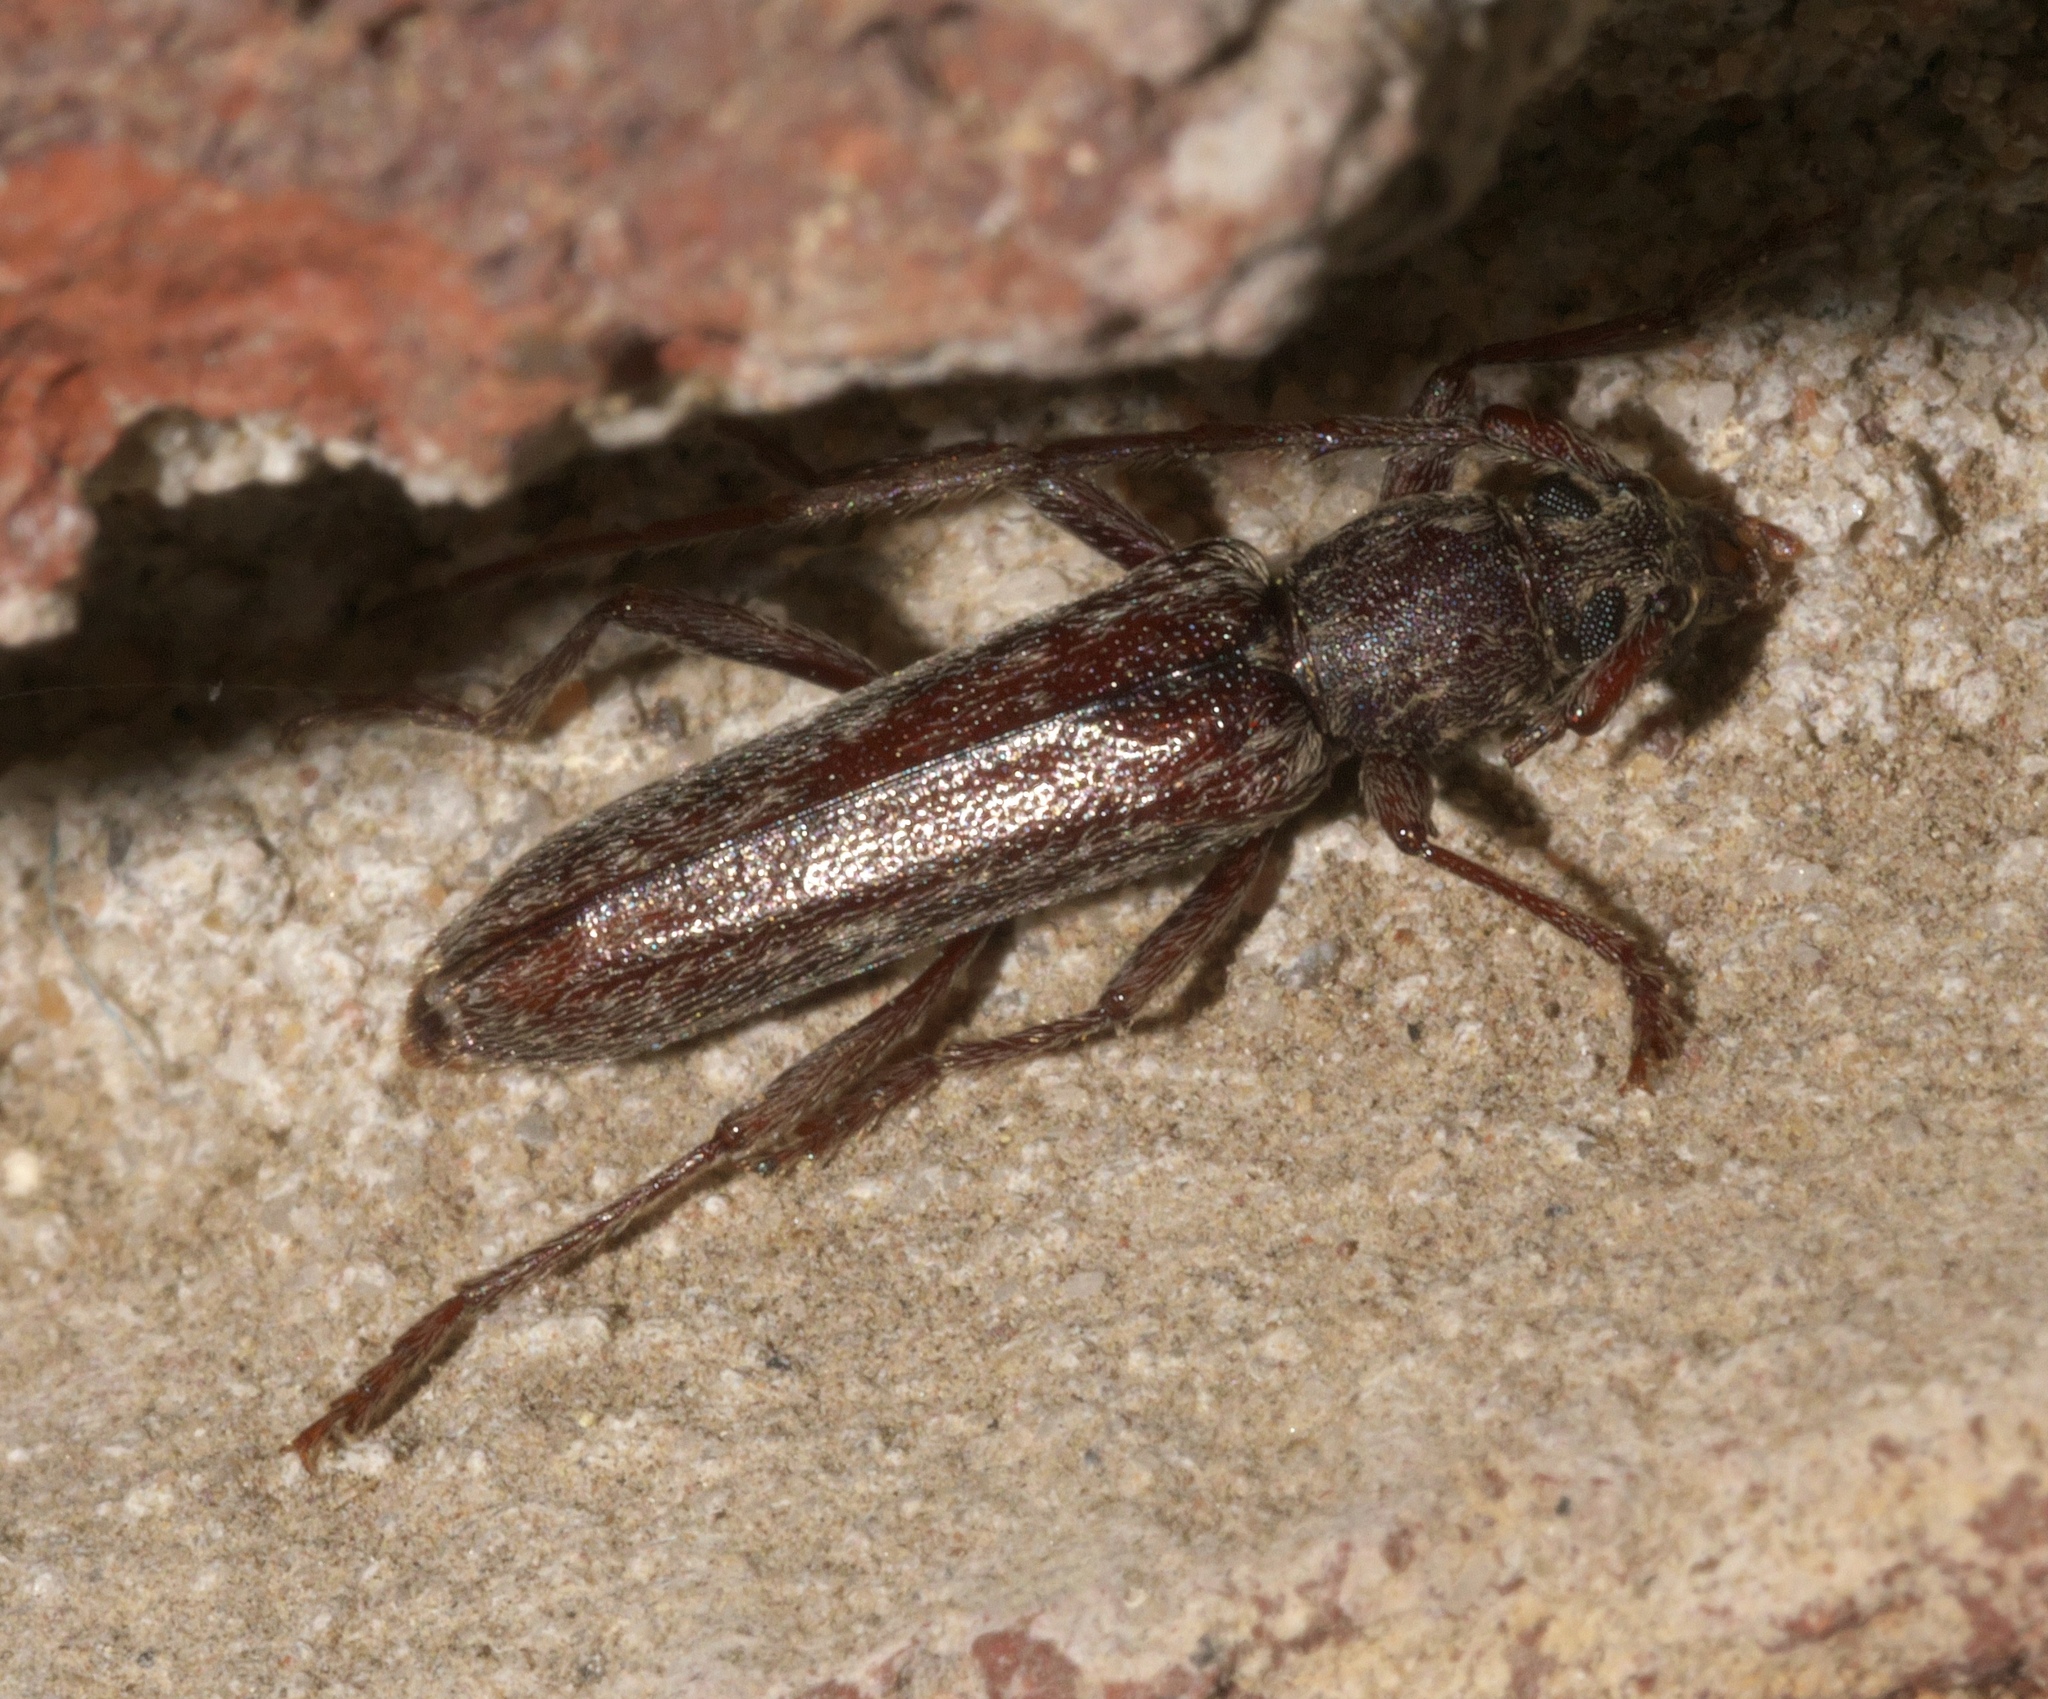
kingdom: Animalia
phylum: Arthropoda
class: Insecta
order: Coleoptera
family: Cerambycidae
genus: Anelaphus
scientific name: Anelaphus villosus
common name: Twig pruner
